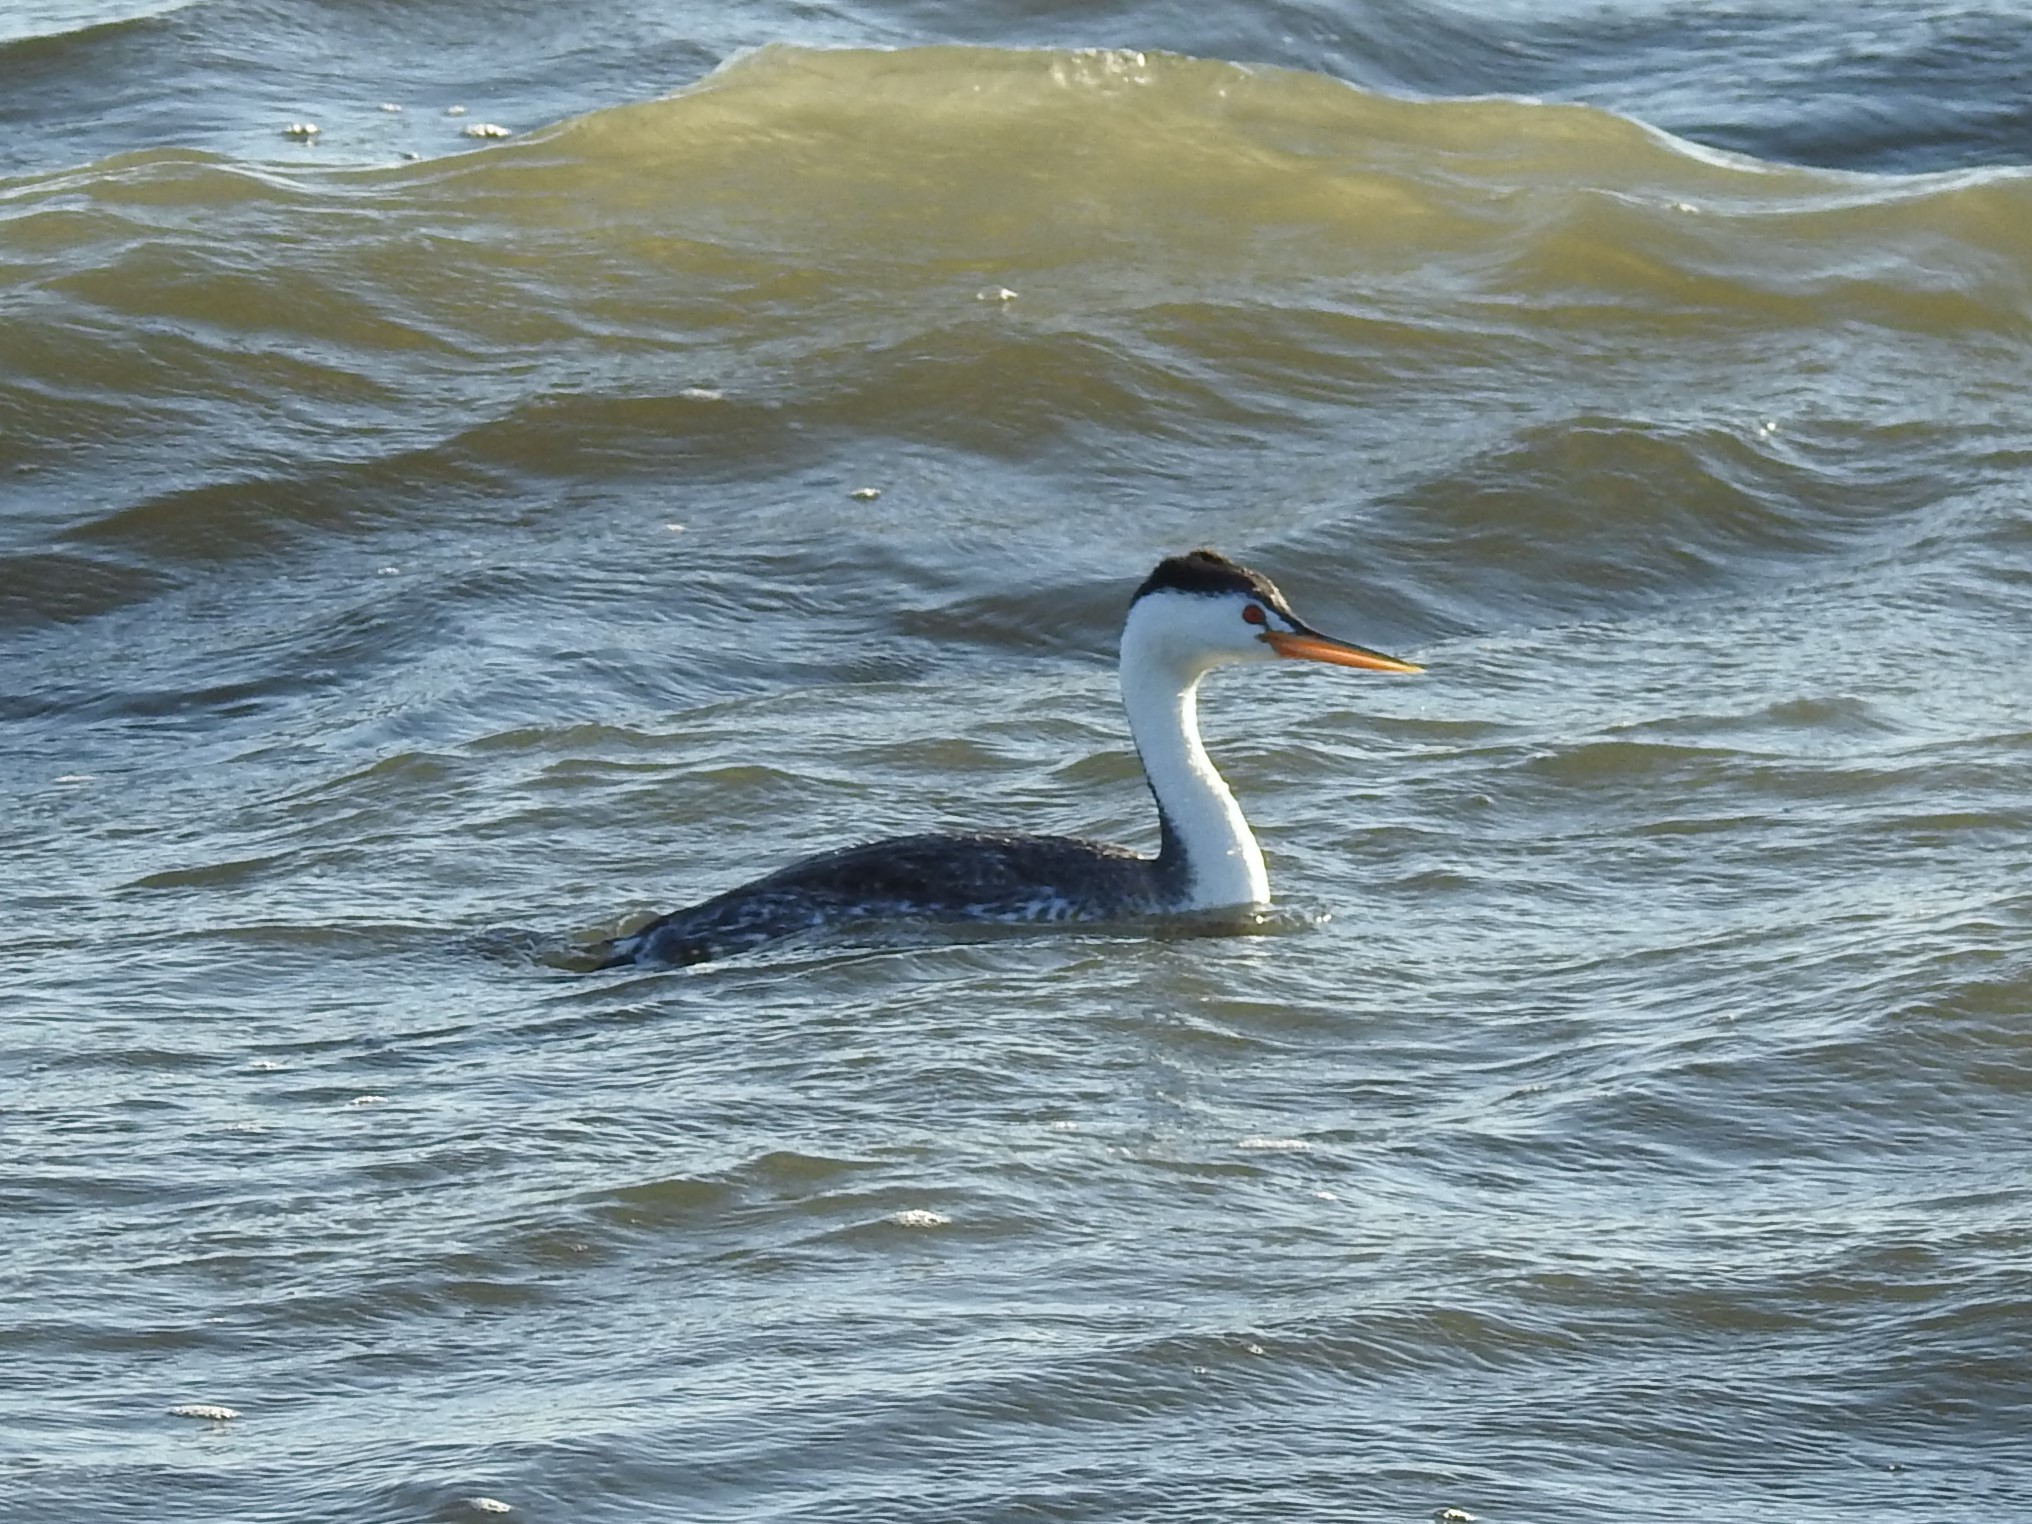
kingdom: Animalia
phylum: Chordata
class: Aves
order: Podicipediformes
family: Podicipedidae
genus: Aechmophorus
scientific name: Aechmophorus clarkii
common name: Clark's grebe
